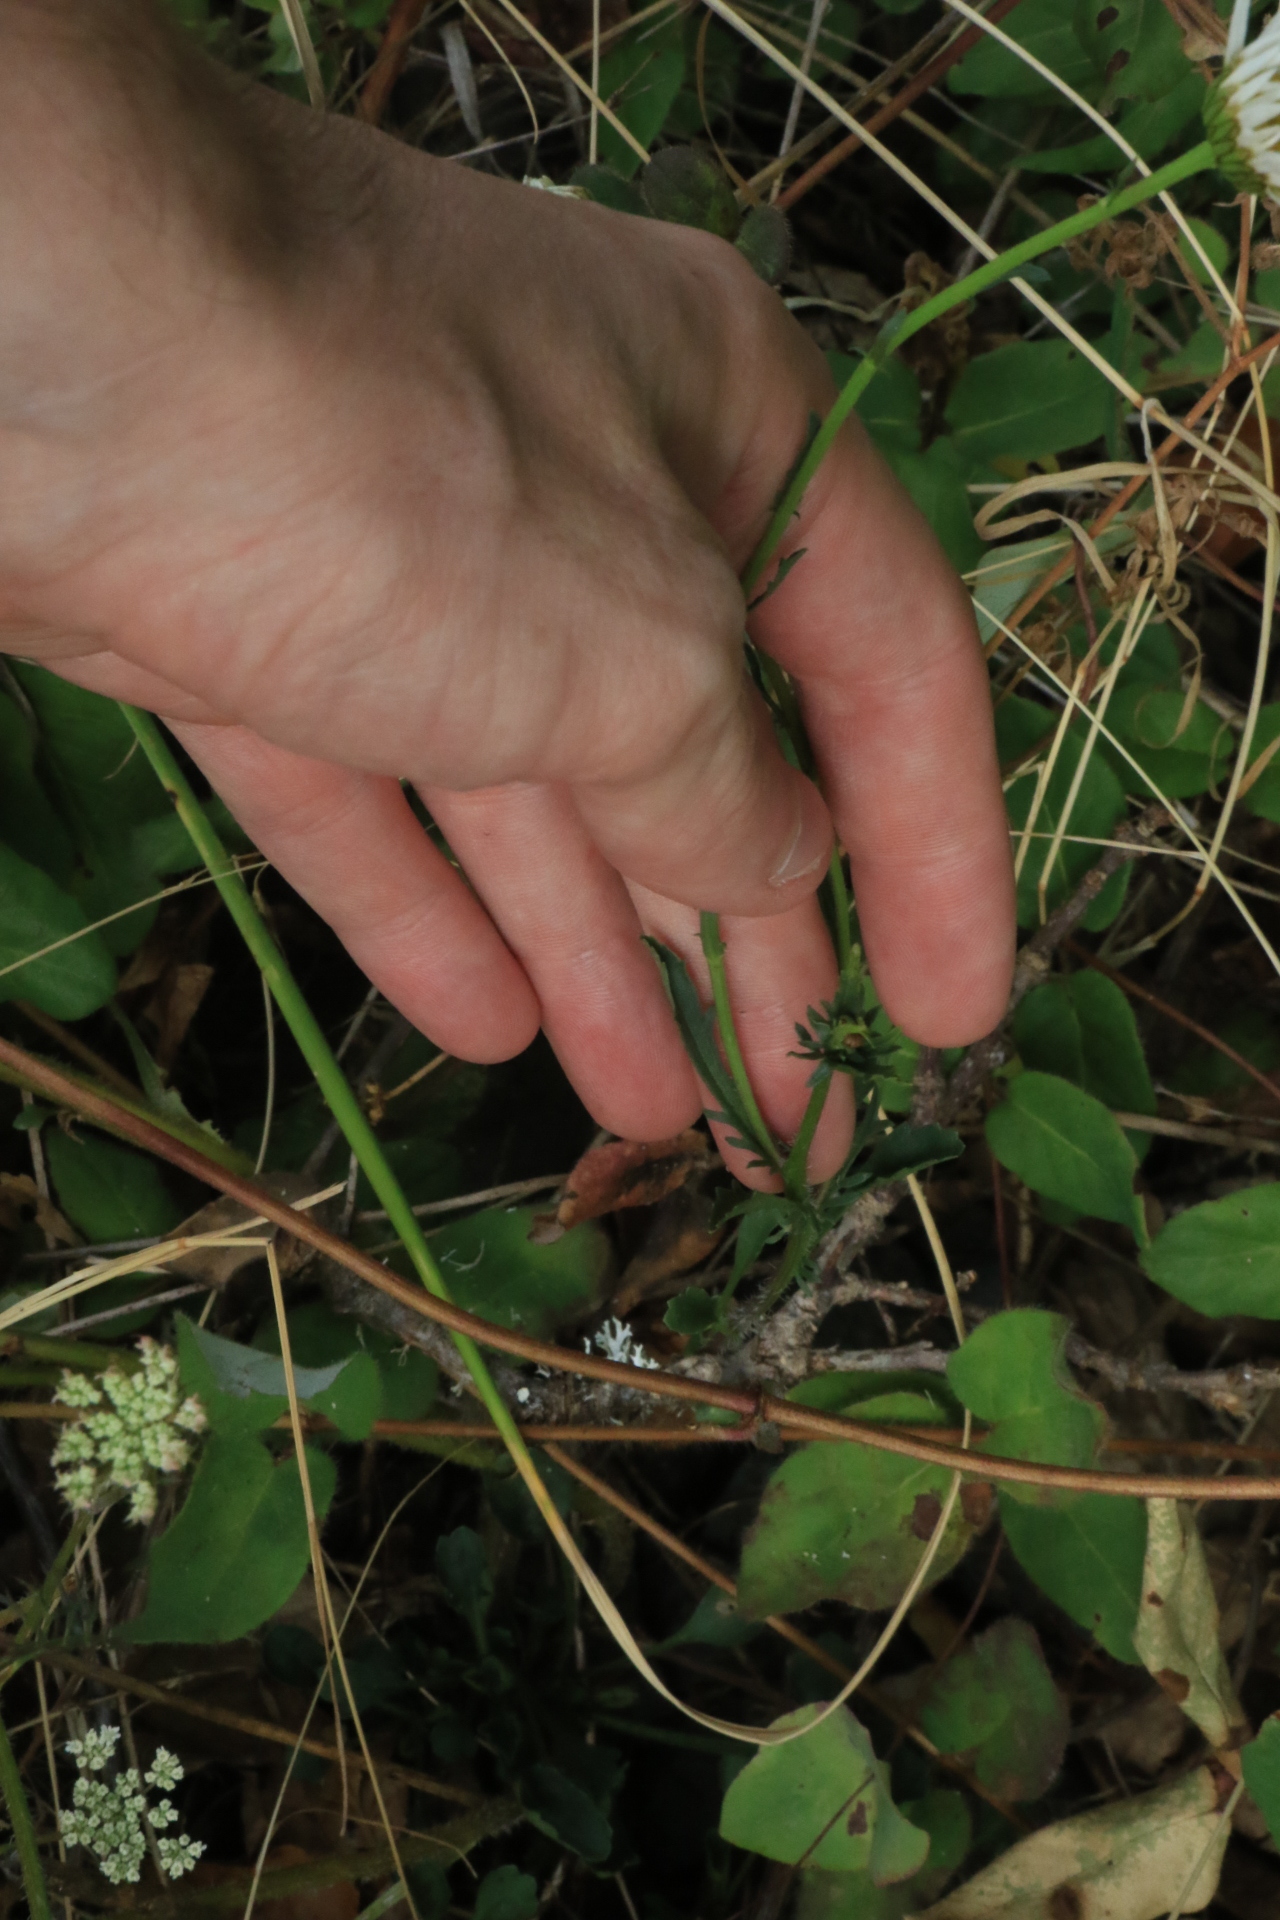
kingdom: Plantae
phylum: Tracheophyta
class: Magnoliopsida
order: Asterales
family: Asteraceae
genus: Leucanthemum
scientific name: Leucanthemum vulgare
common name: Oxeye daisy
